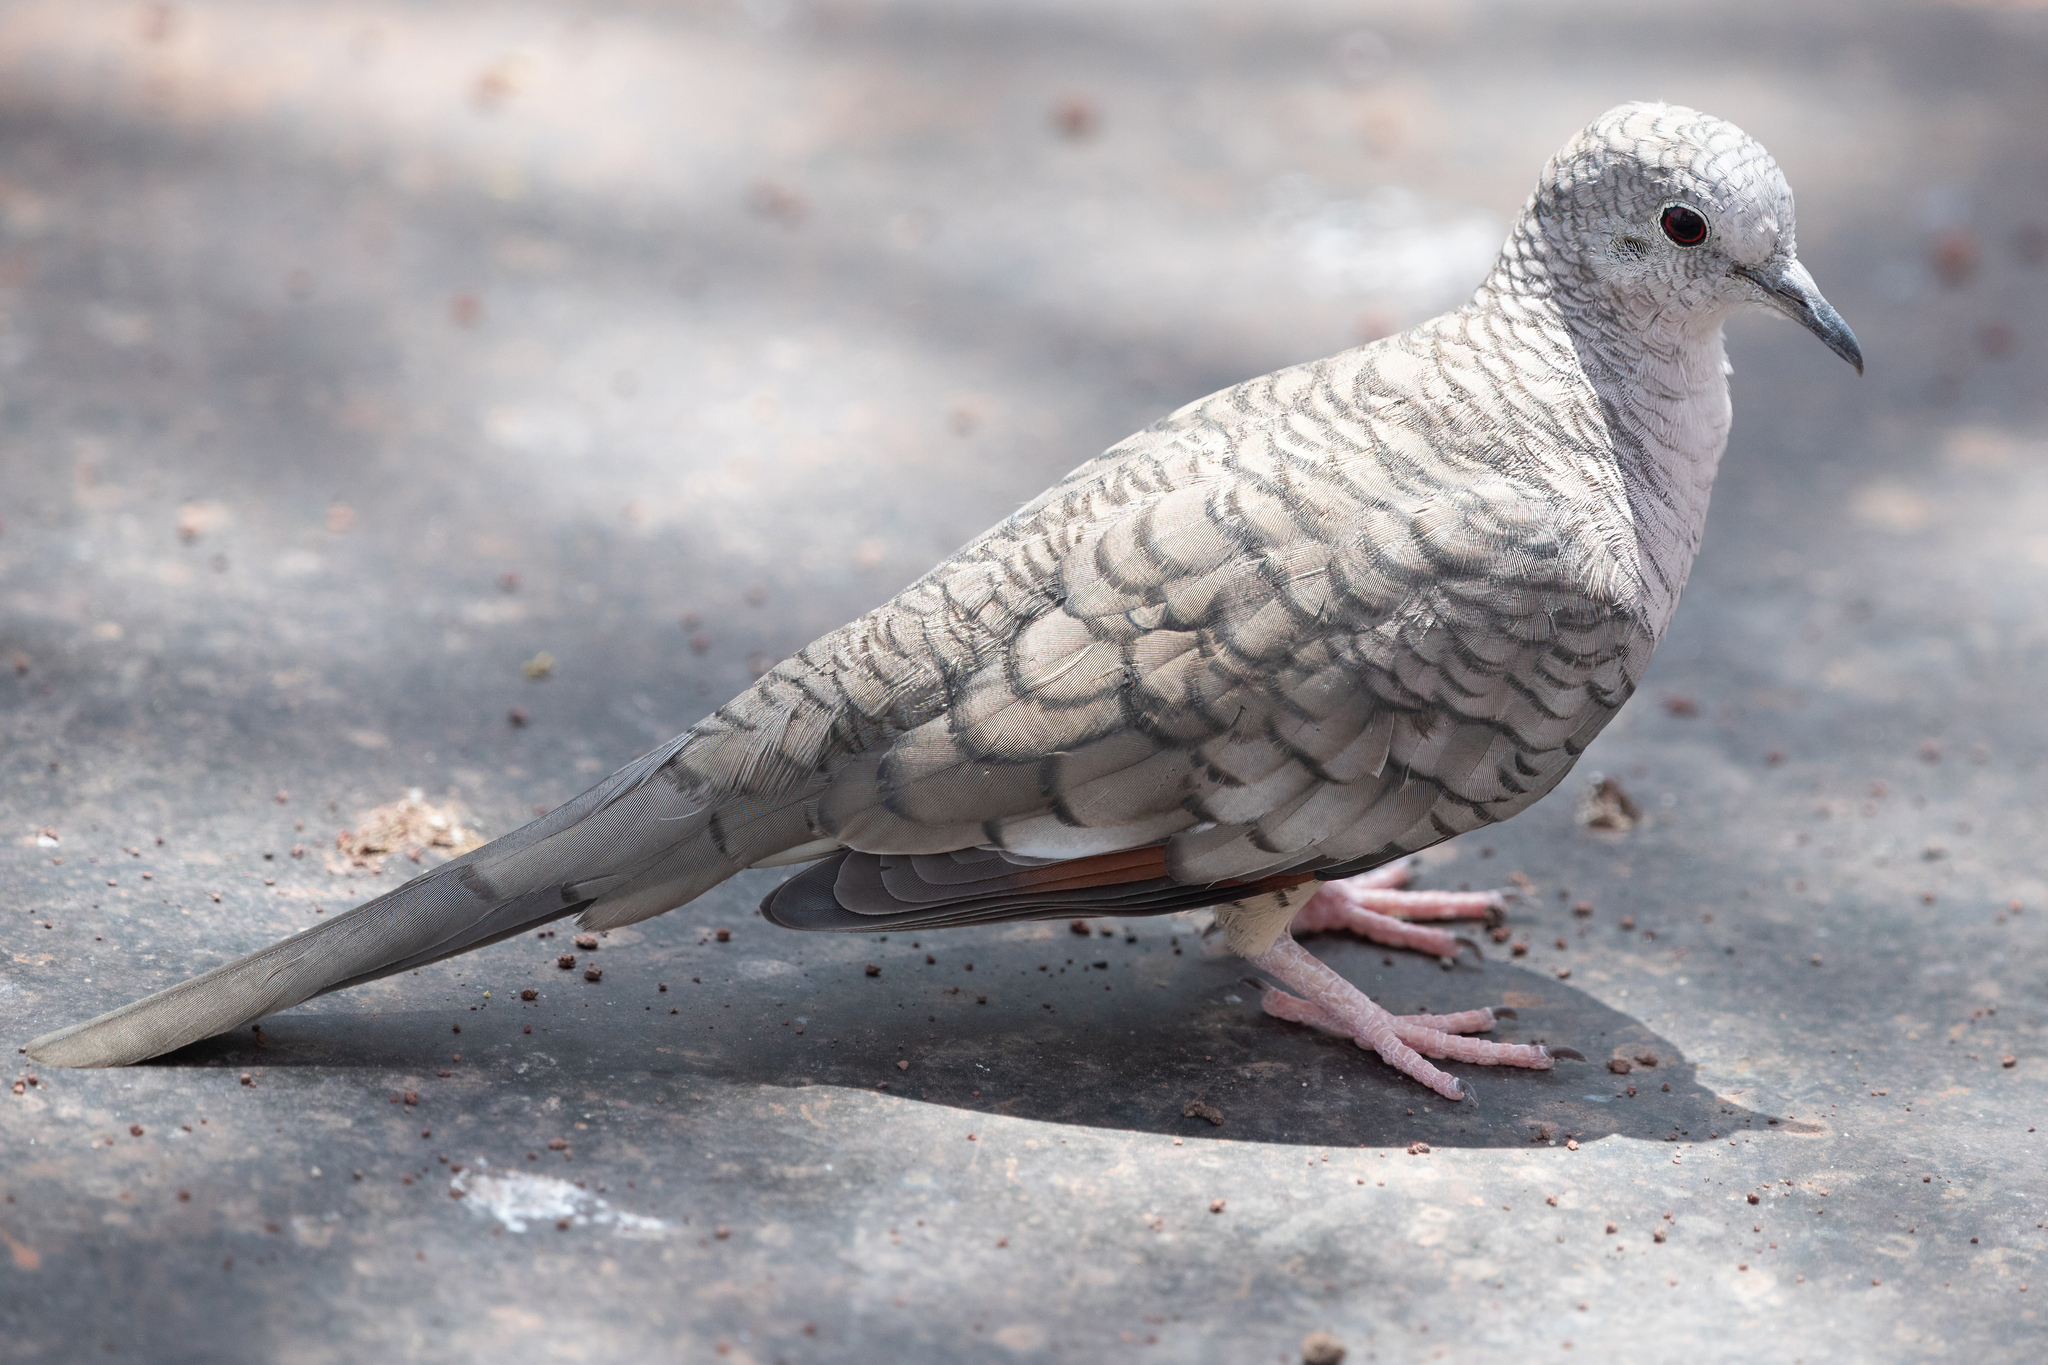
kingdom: Animalia
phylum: Chordata
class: Aves
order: Columbiformes
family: Columbidae
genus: Columbina
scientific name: Columbina inca
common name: Inca dove
